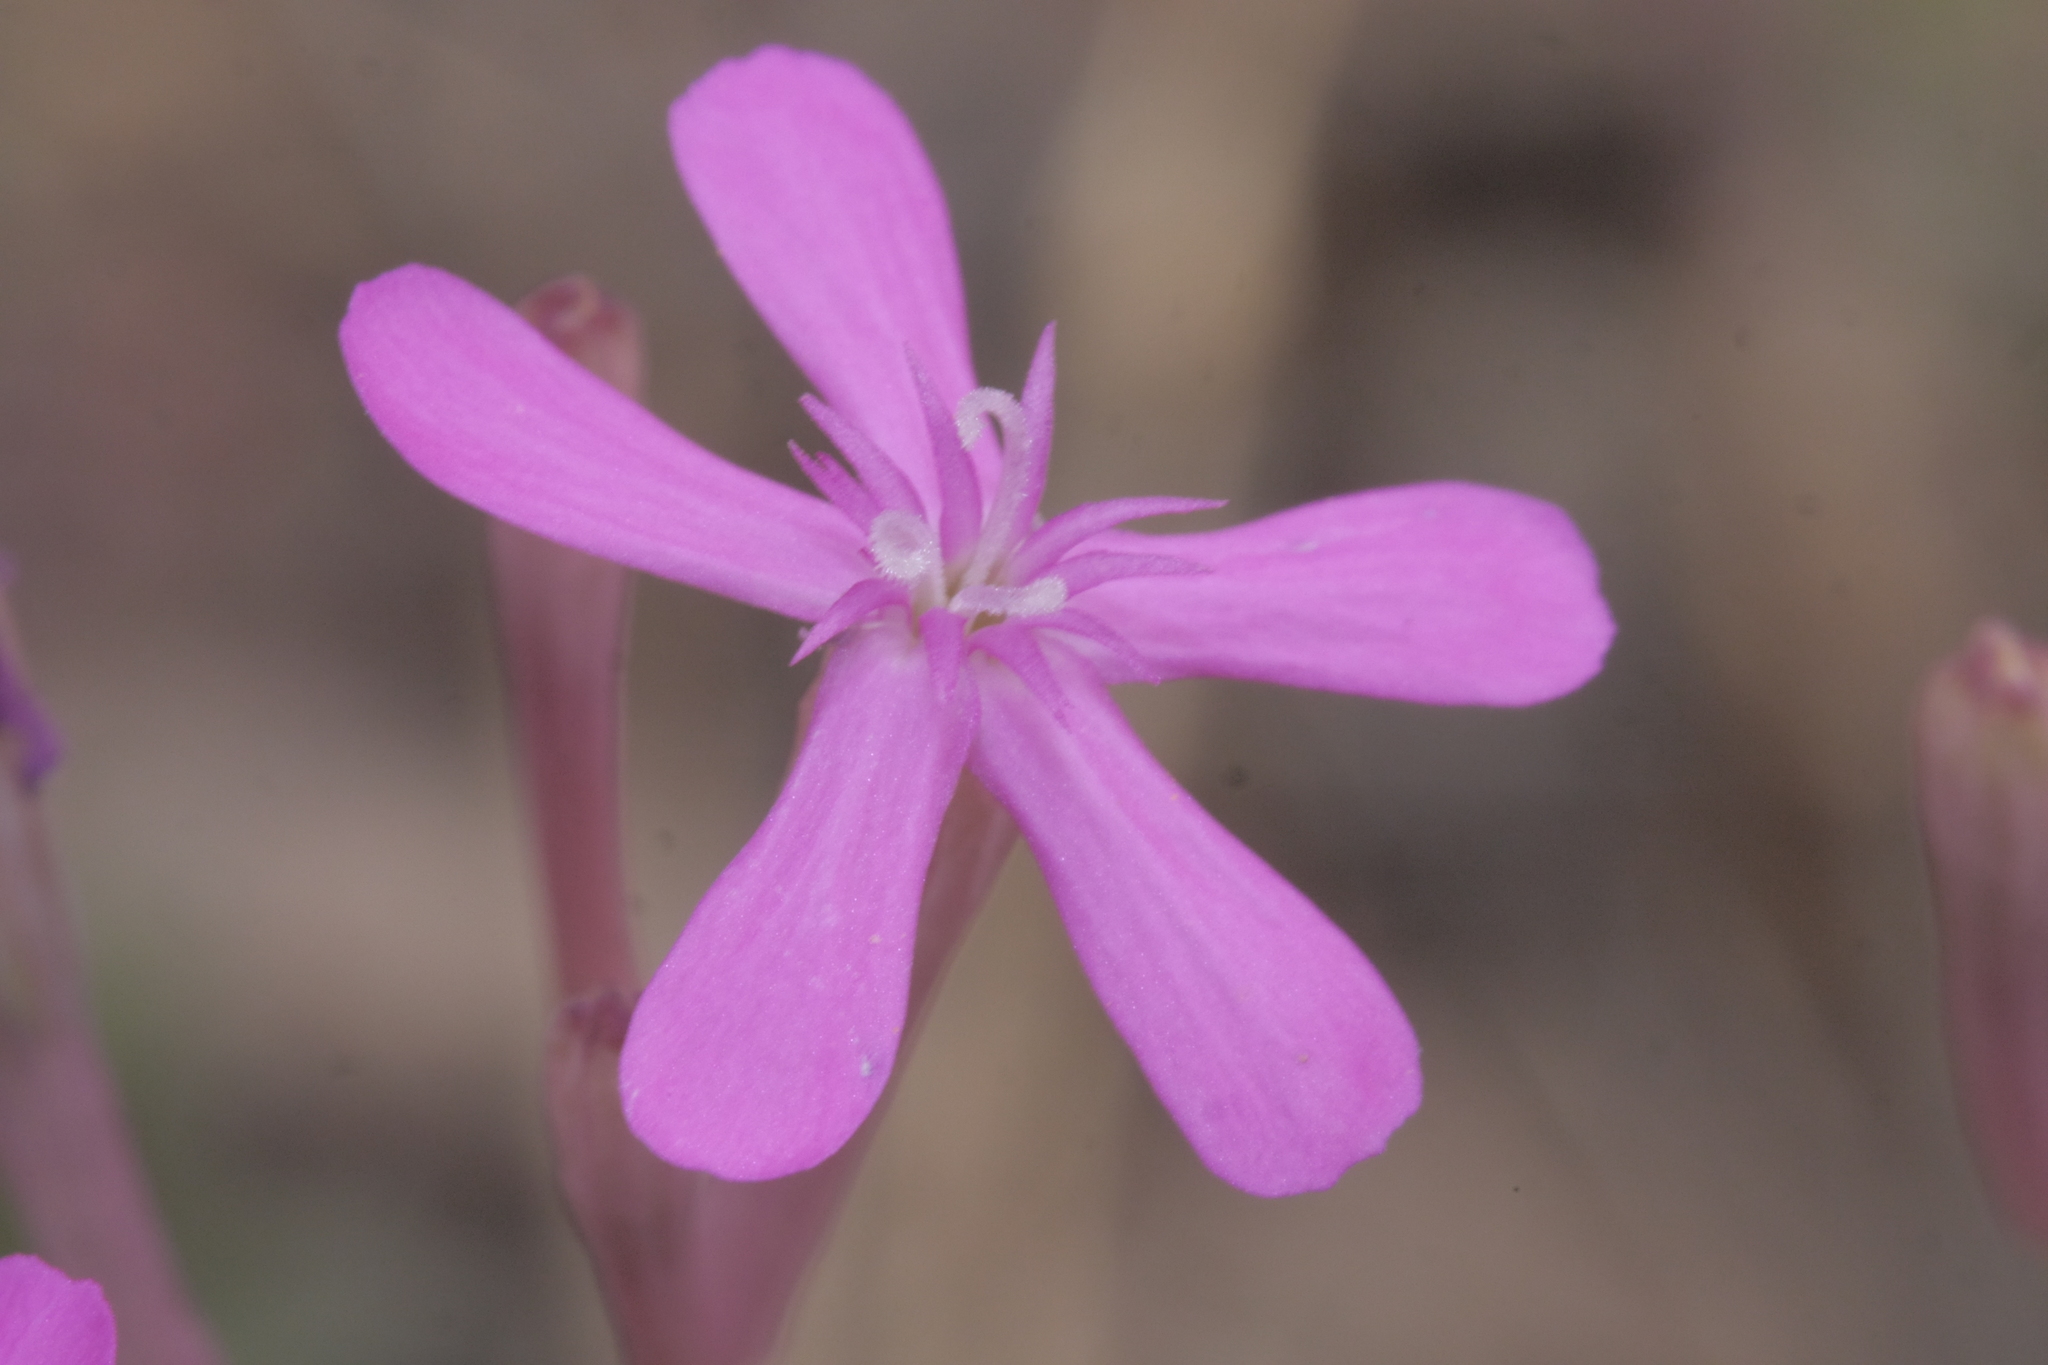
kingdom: Plantae
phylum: Tracheophyta
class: Magnoliopsida
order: Caryophyllales
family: Caryophyllaceae
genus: Atocion
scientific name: Atocion armeria
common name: Sweet william catchfly
